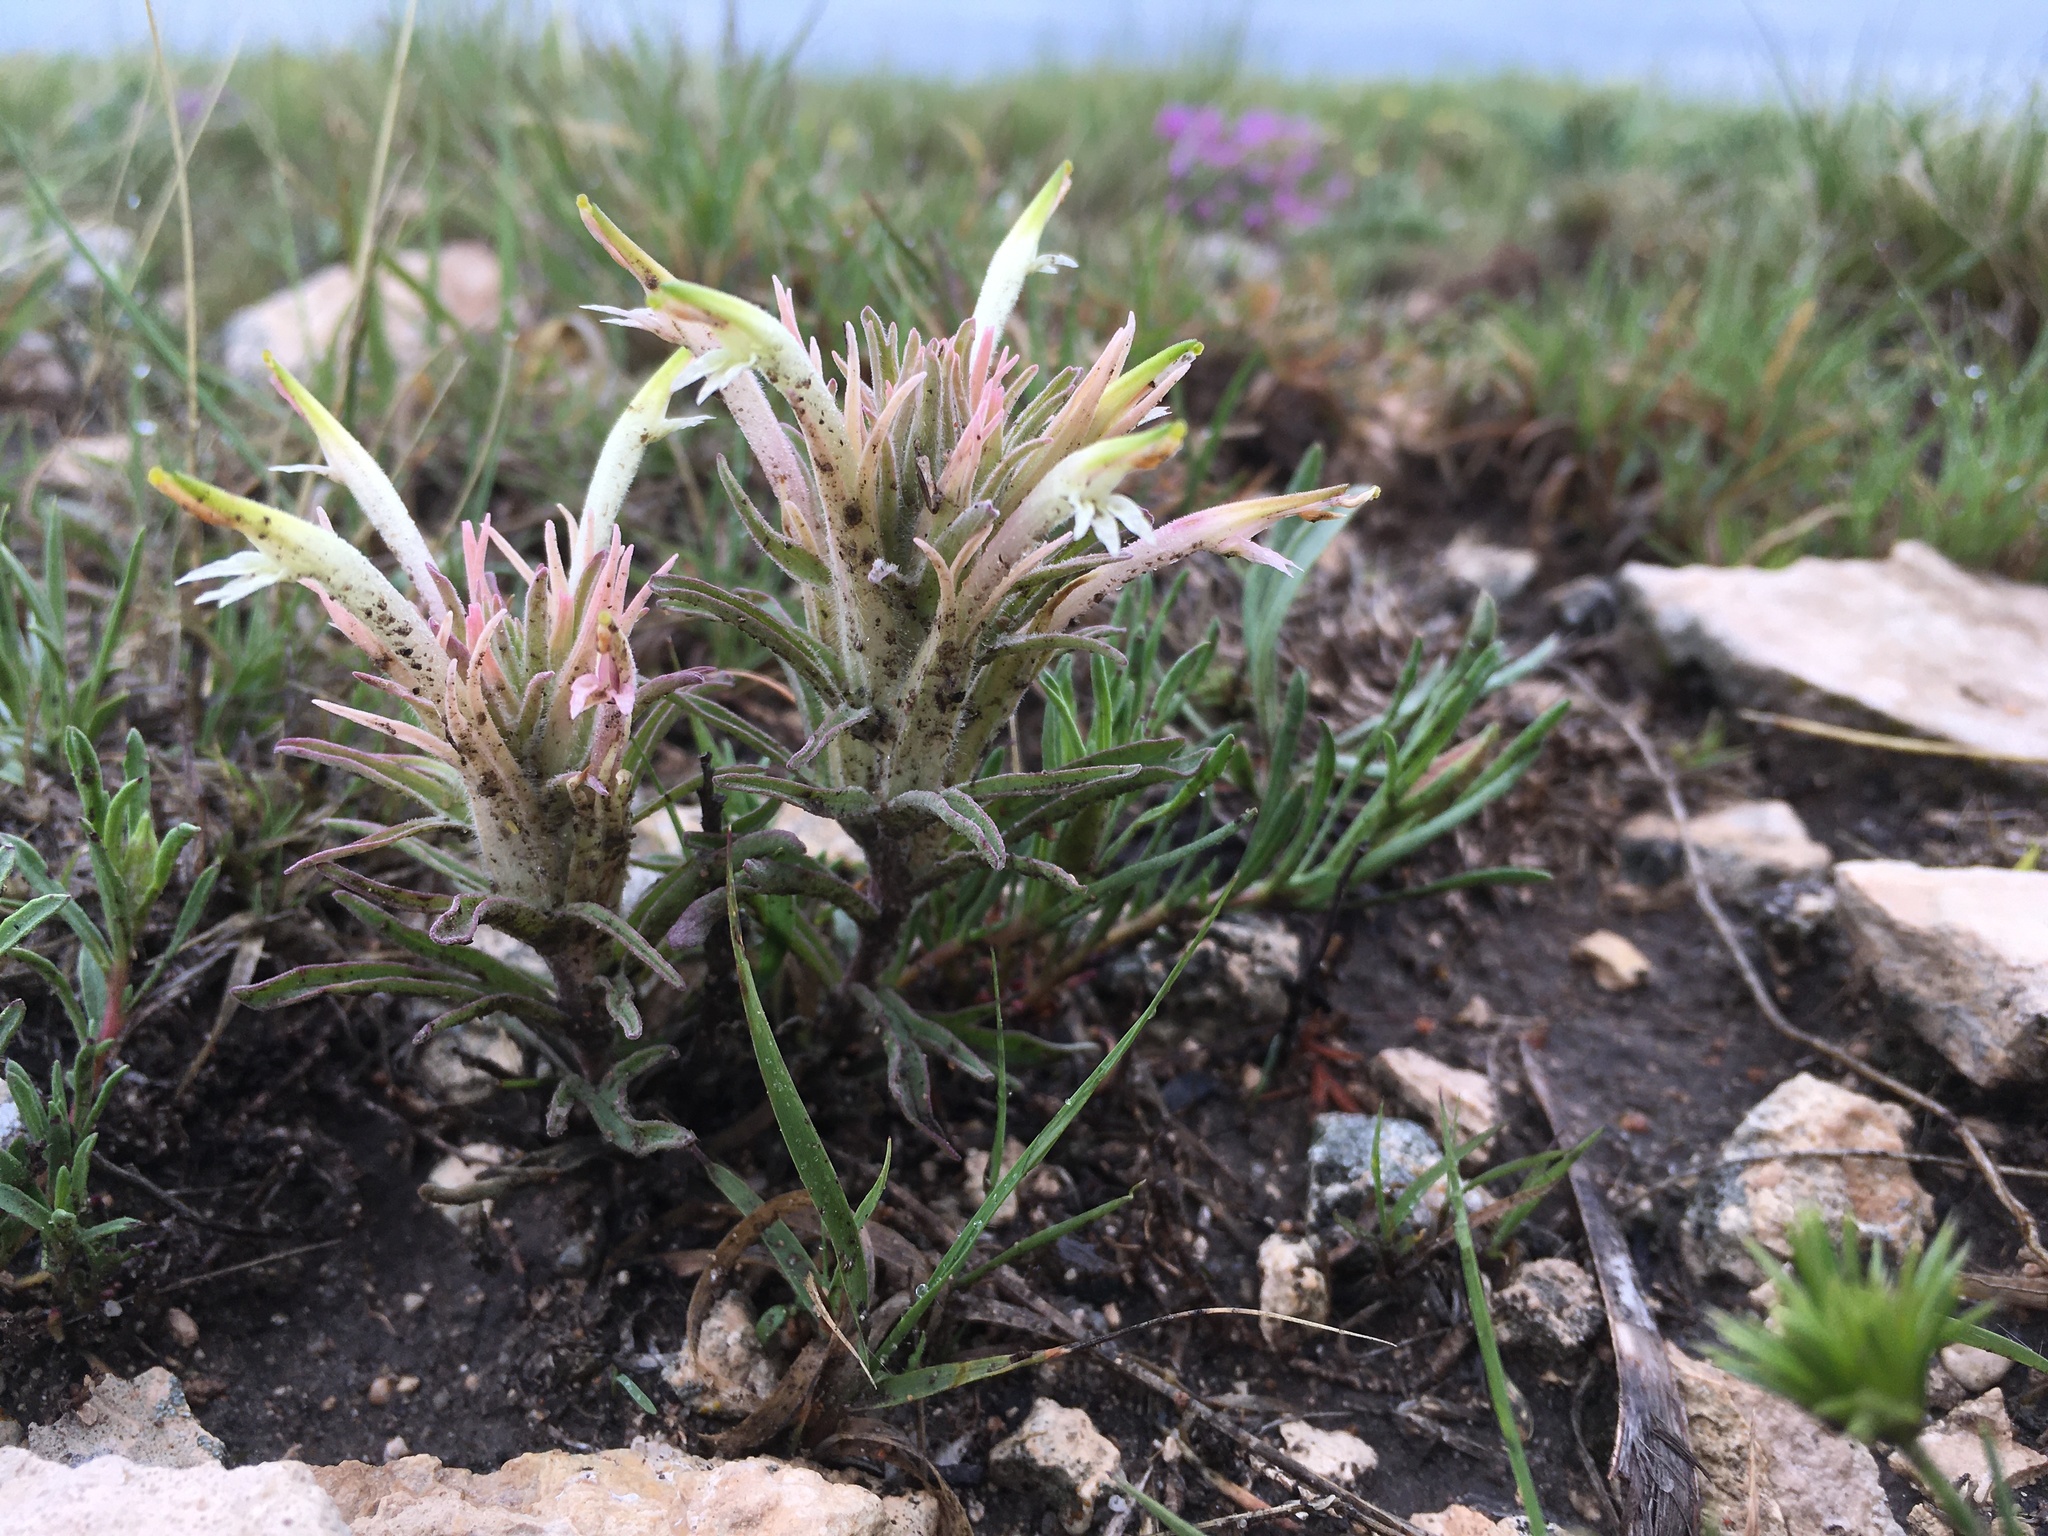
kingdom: Plantae
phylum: Tracheophyta
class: Magnoliopsida
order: Lamiales
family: Orobanchaceae
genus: Castilleja
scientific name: Castilleja sessiliflora
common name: Downy paintbrush
